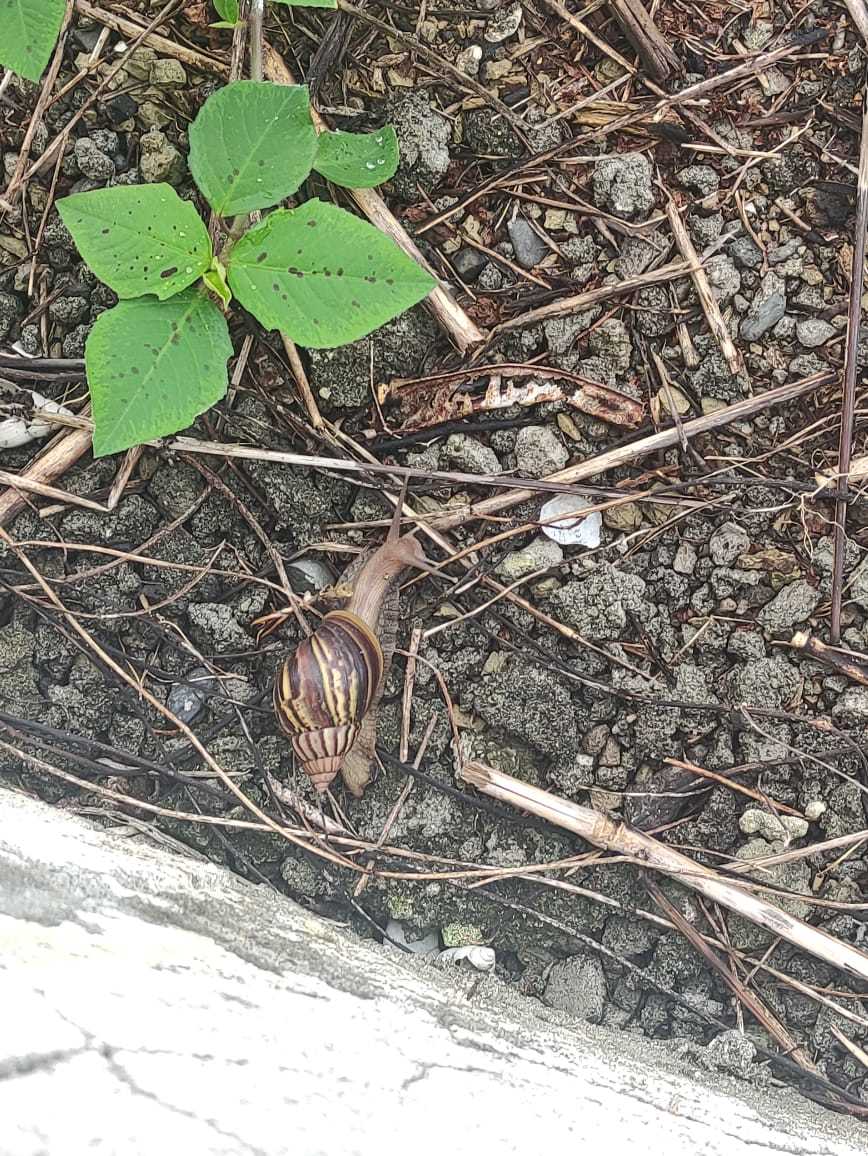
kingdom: Animalia
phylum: Mollusca
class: Gastropoda
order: Stylommatophora
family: Achatinidae
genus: Lissachatina
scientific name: Lissachatina fulica
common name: Giant african snail
